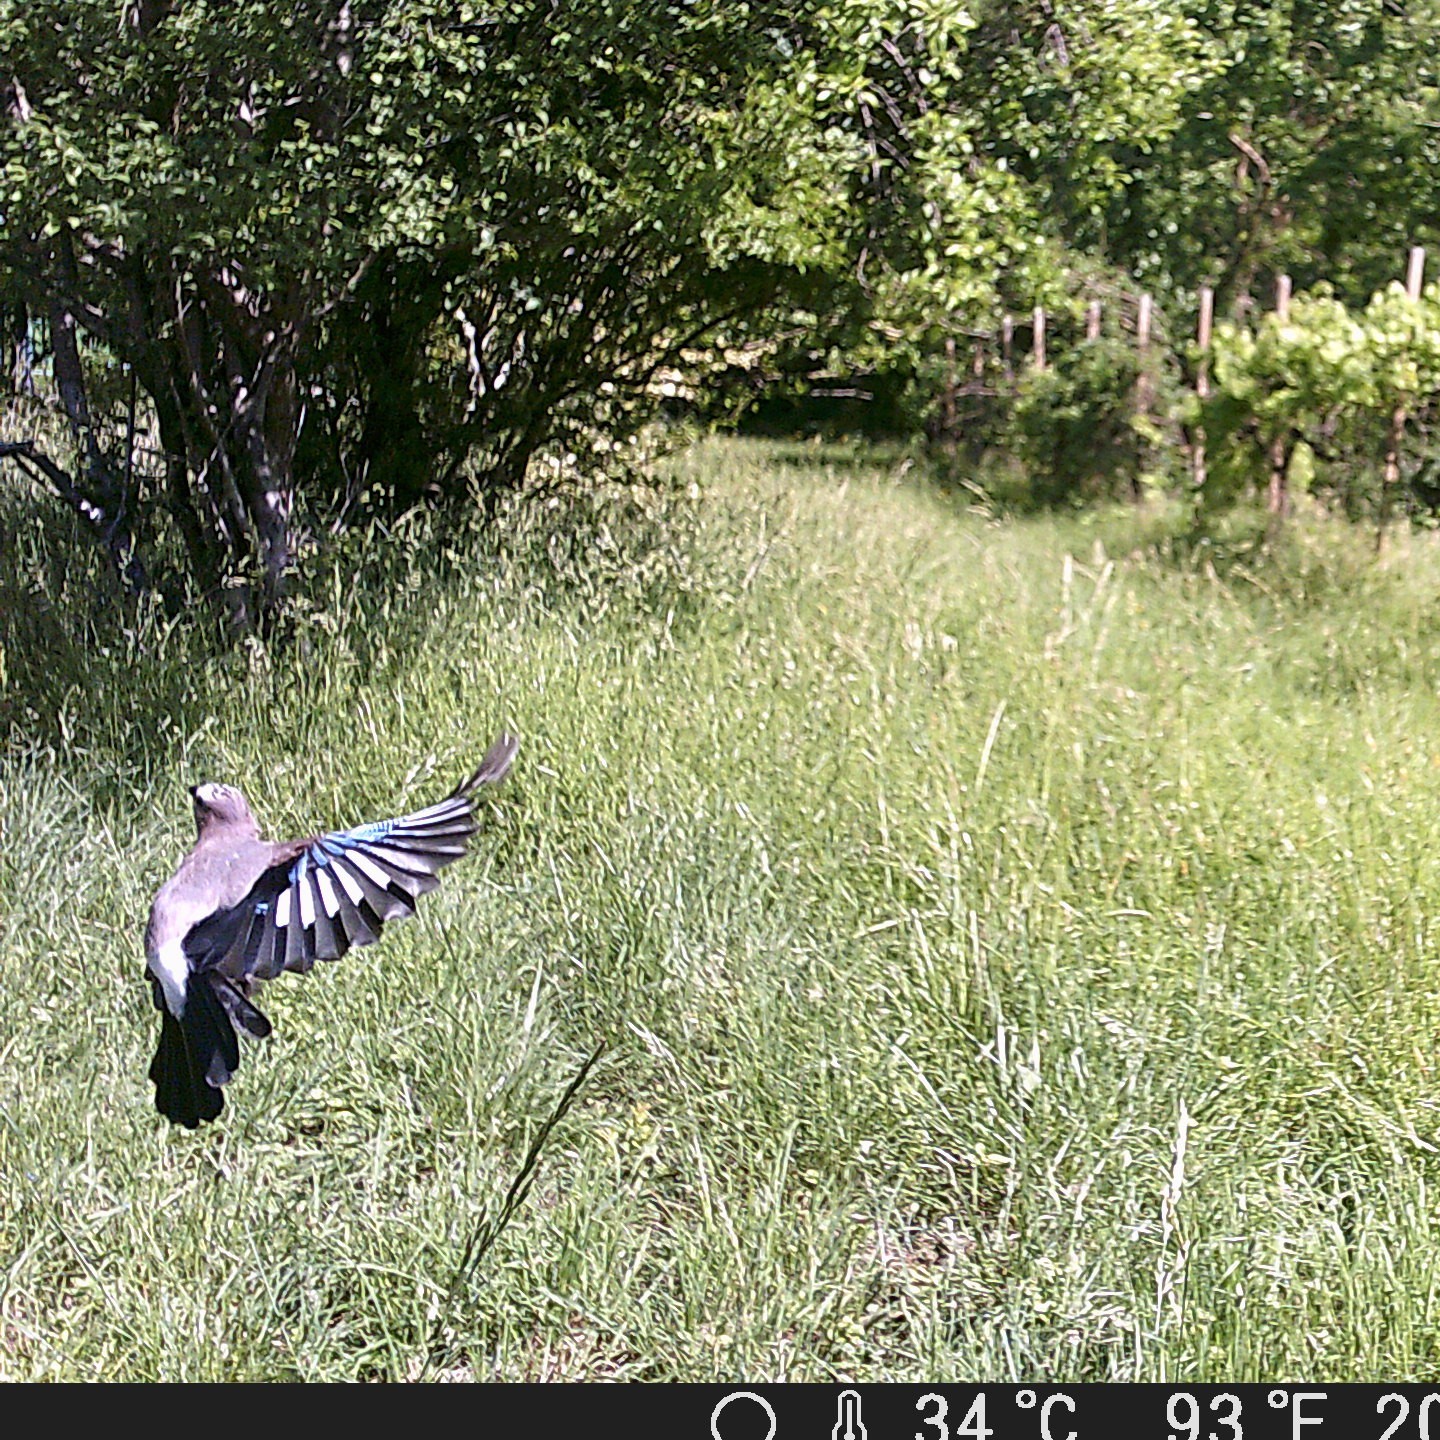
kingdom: Animalia
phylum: Chordata
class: Aves
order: Passeriformes
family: Corvidae
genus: Garrulus
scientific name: Garrulus glandarius
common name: Eurasian jay
